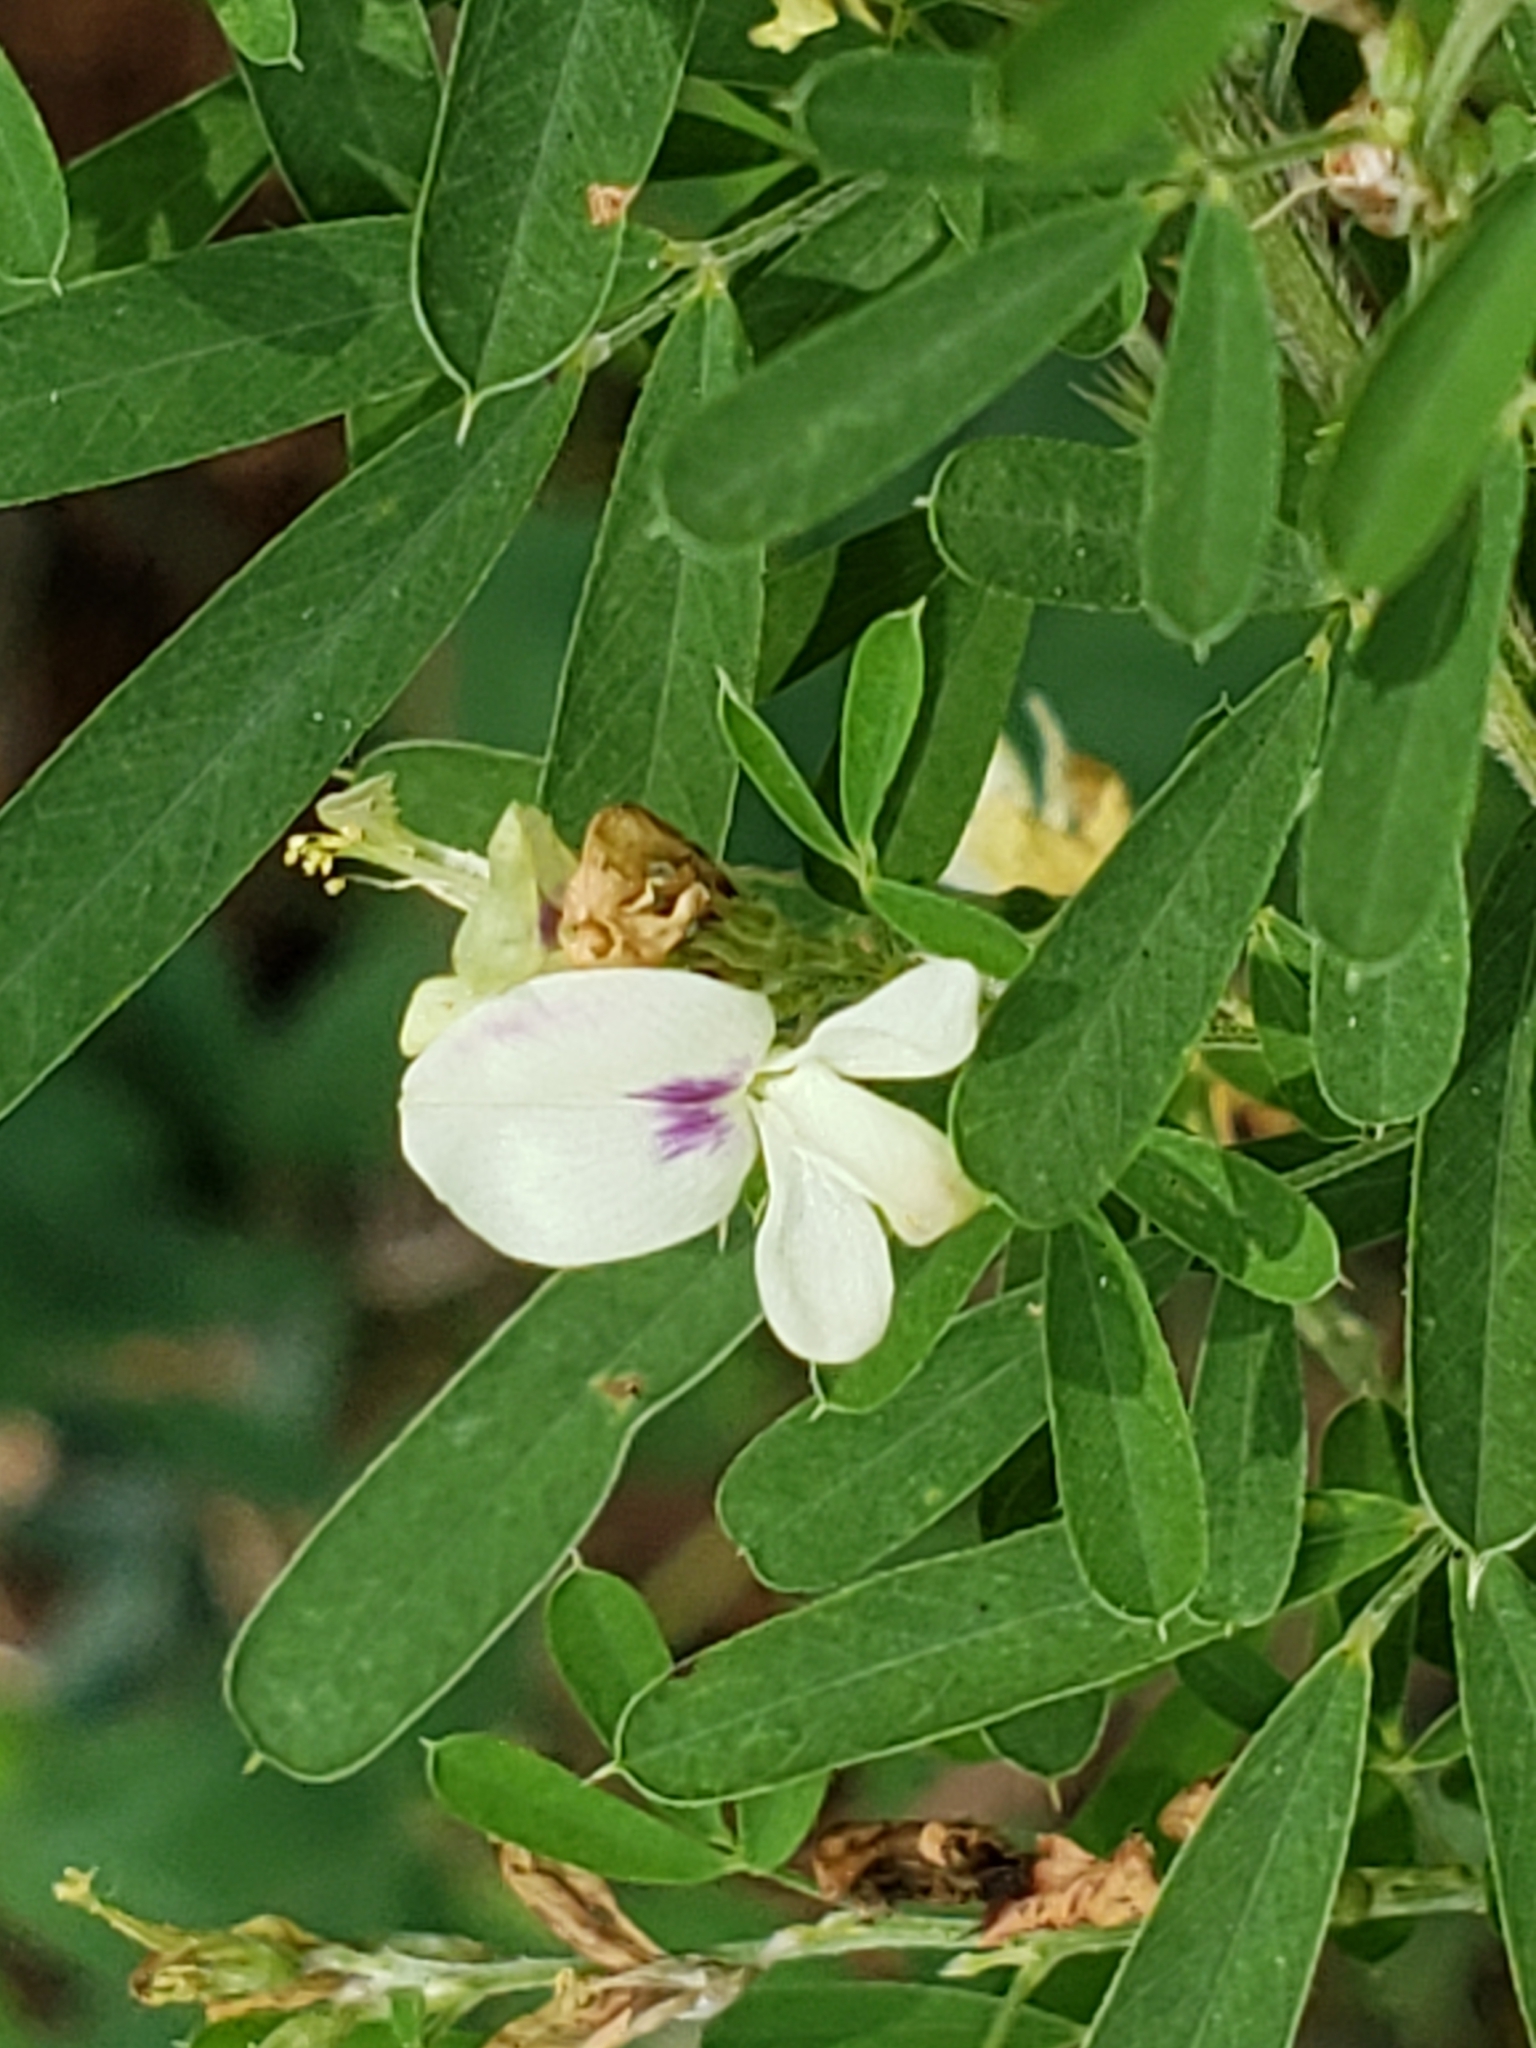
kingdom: Plantae
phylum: Tracheophyta
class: Magnoliopsida
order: Fabales
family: Fabaceae
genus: Lespedeza
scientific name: Lespedeza cuneata
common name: Chinese bush-clover
